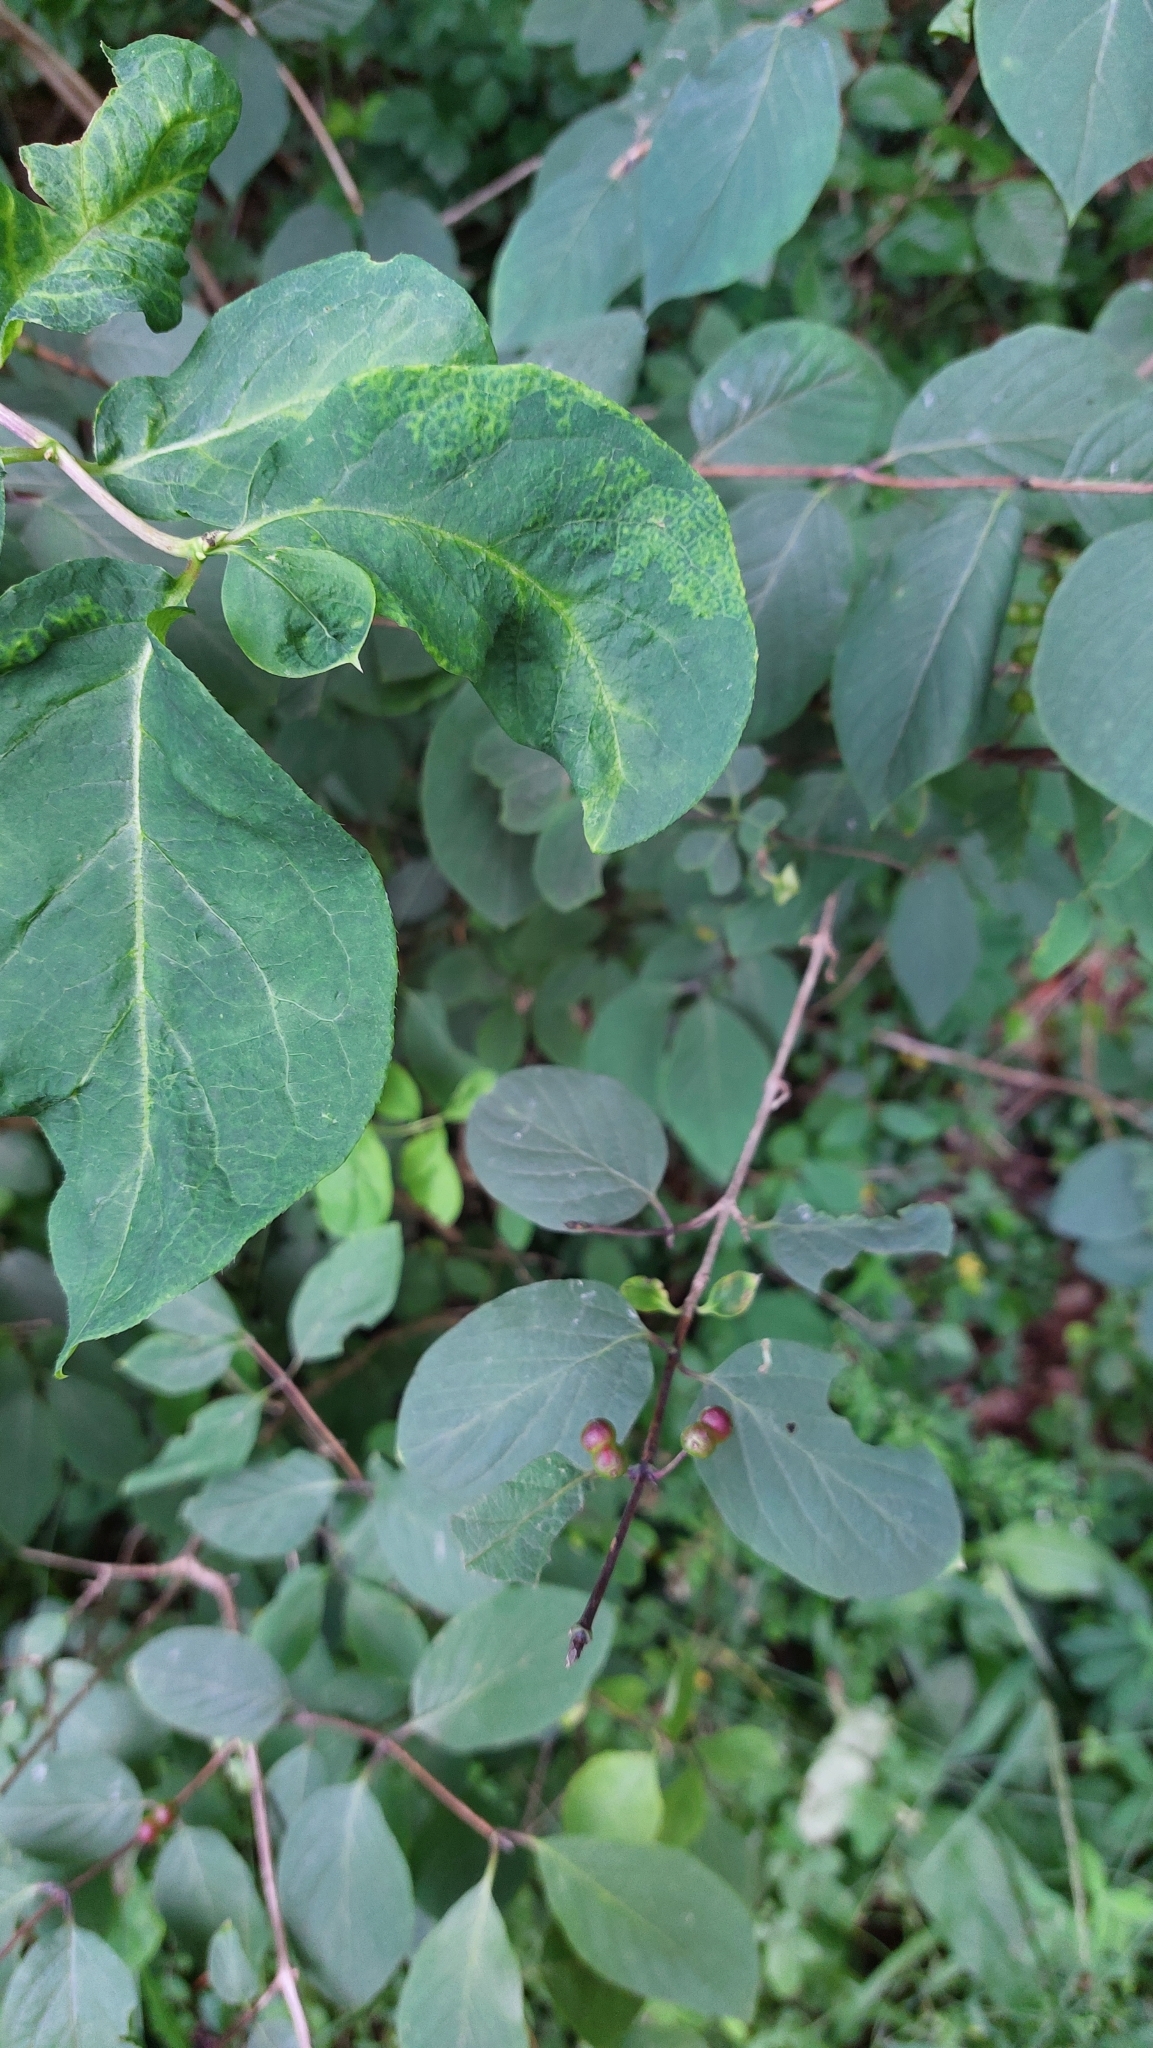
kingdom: Plantae
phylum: Tracheophyta
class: Magnoliopsida
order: Dipsacales
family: Caprifoliaceae
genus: Lonicera
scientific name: Lonicera xylosteum
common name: Fly honeysuckle
